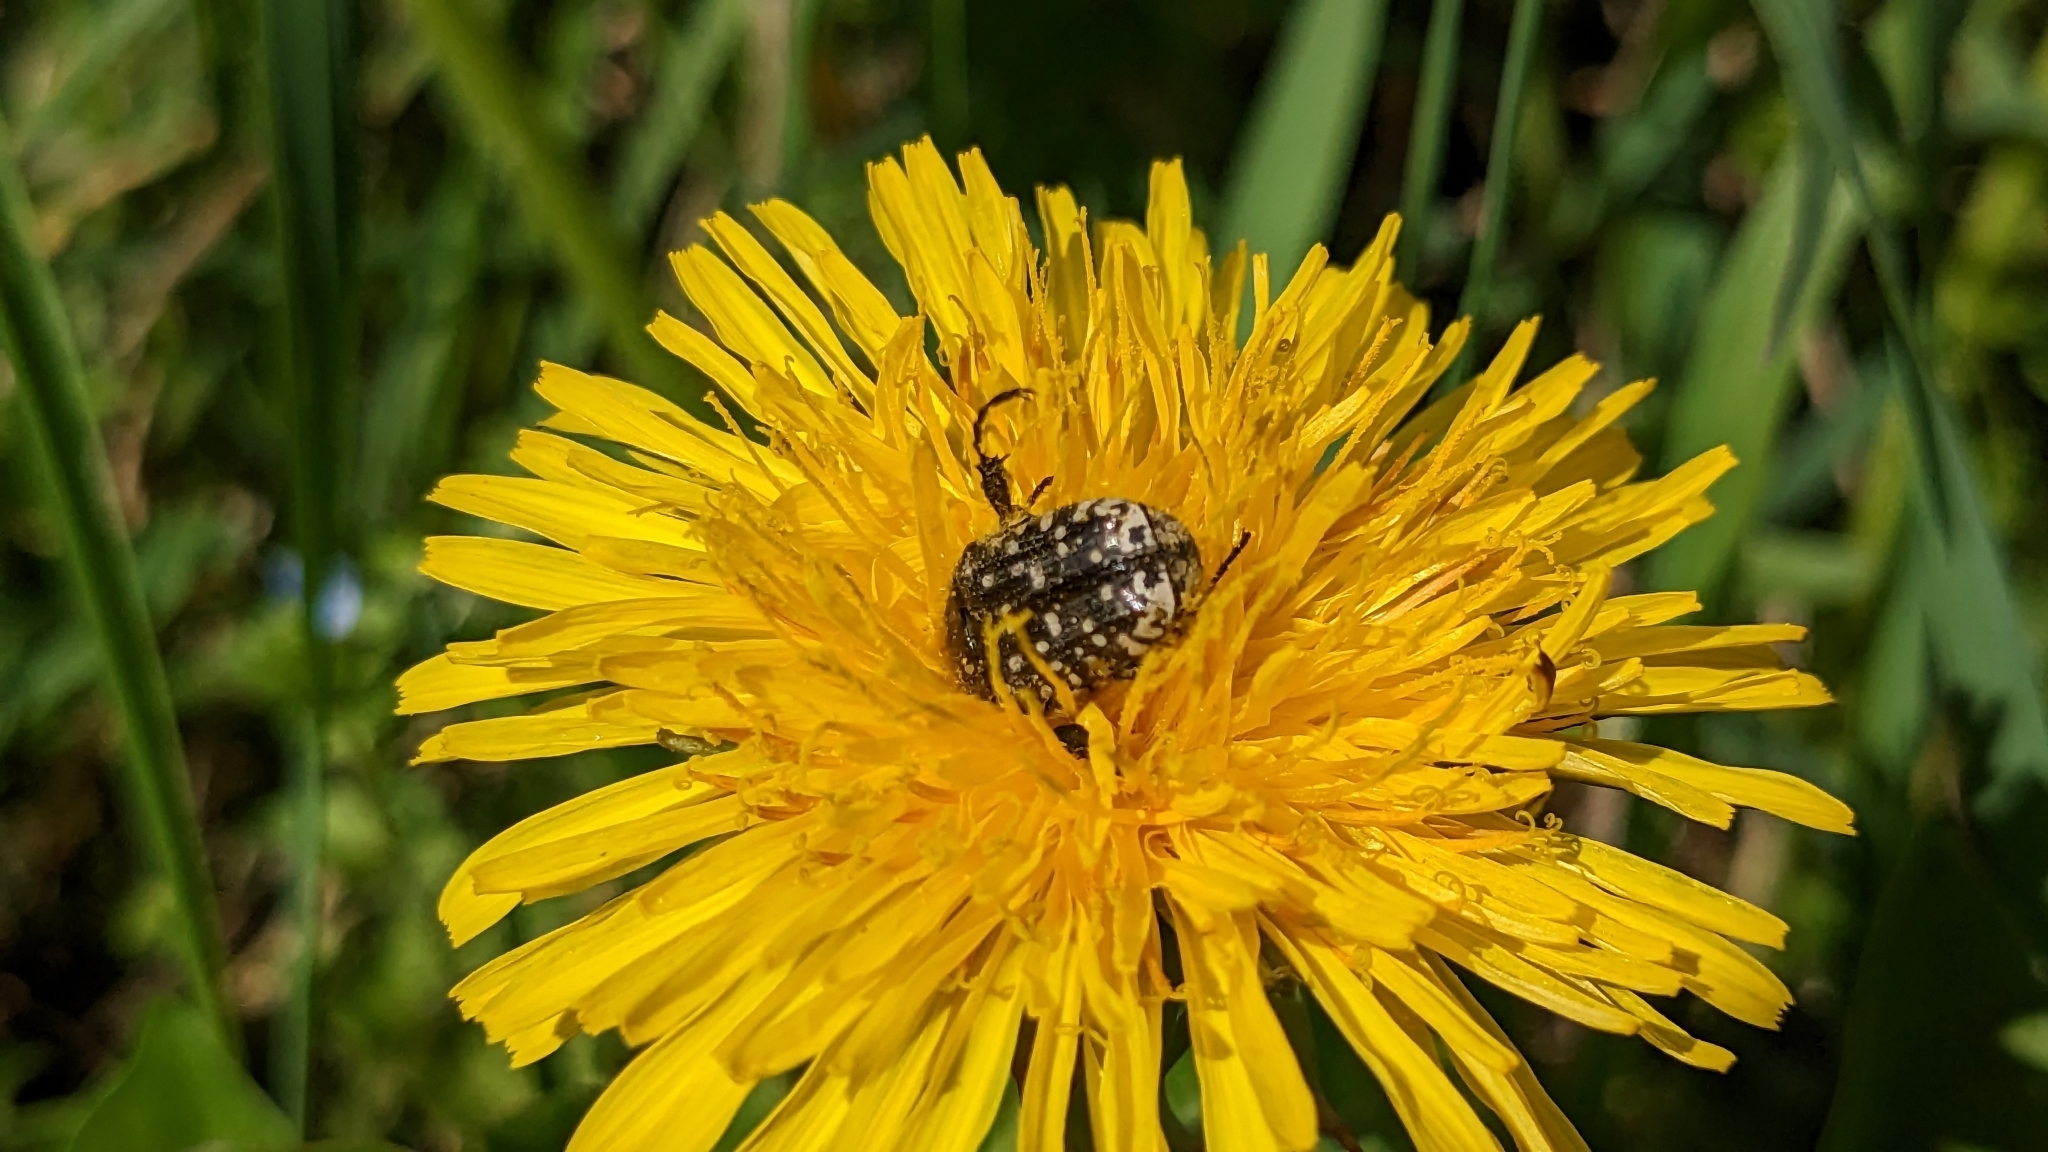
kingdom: Animalia
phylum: Arthropoda
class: Insecta
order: Coleoptera
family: Scarabaeidae
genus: Oxythyrea
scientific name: Oxythyrea funesta
